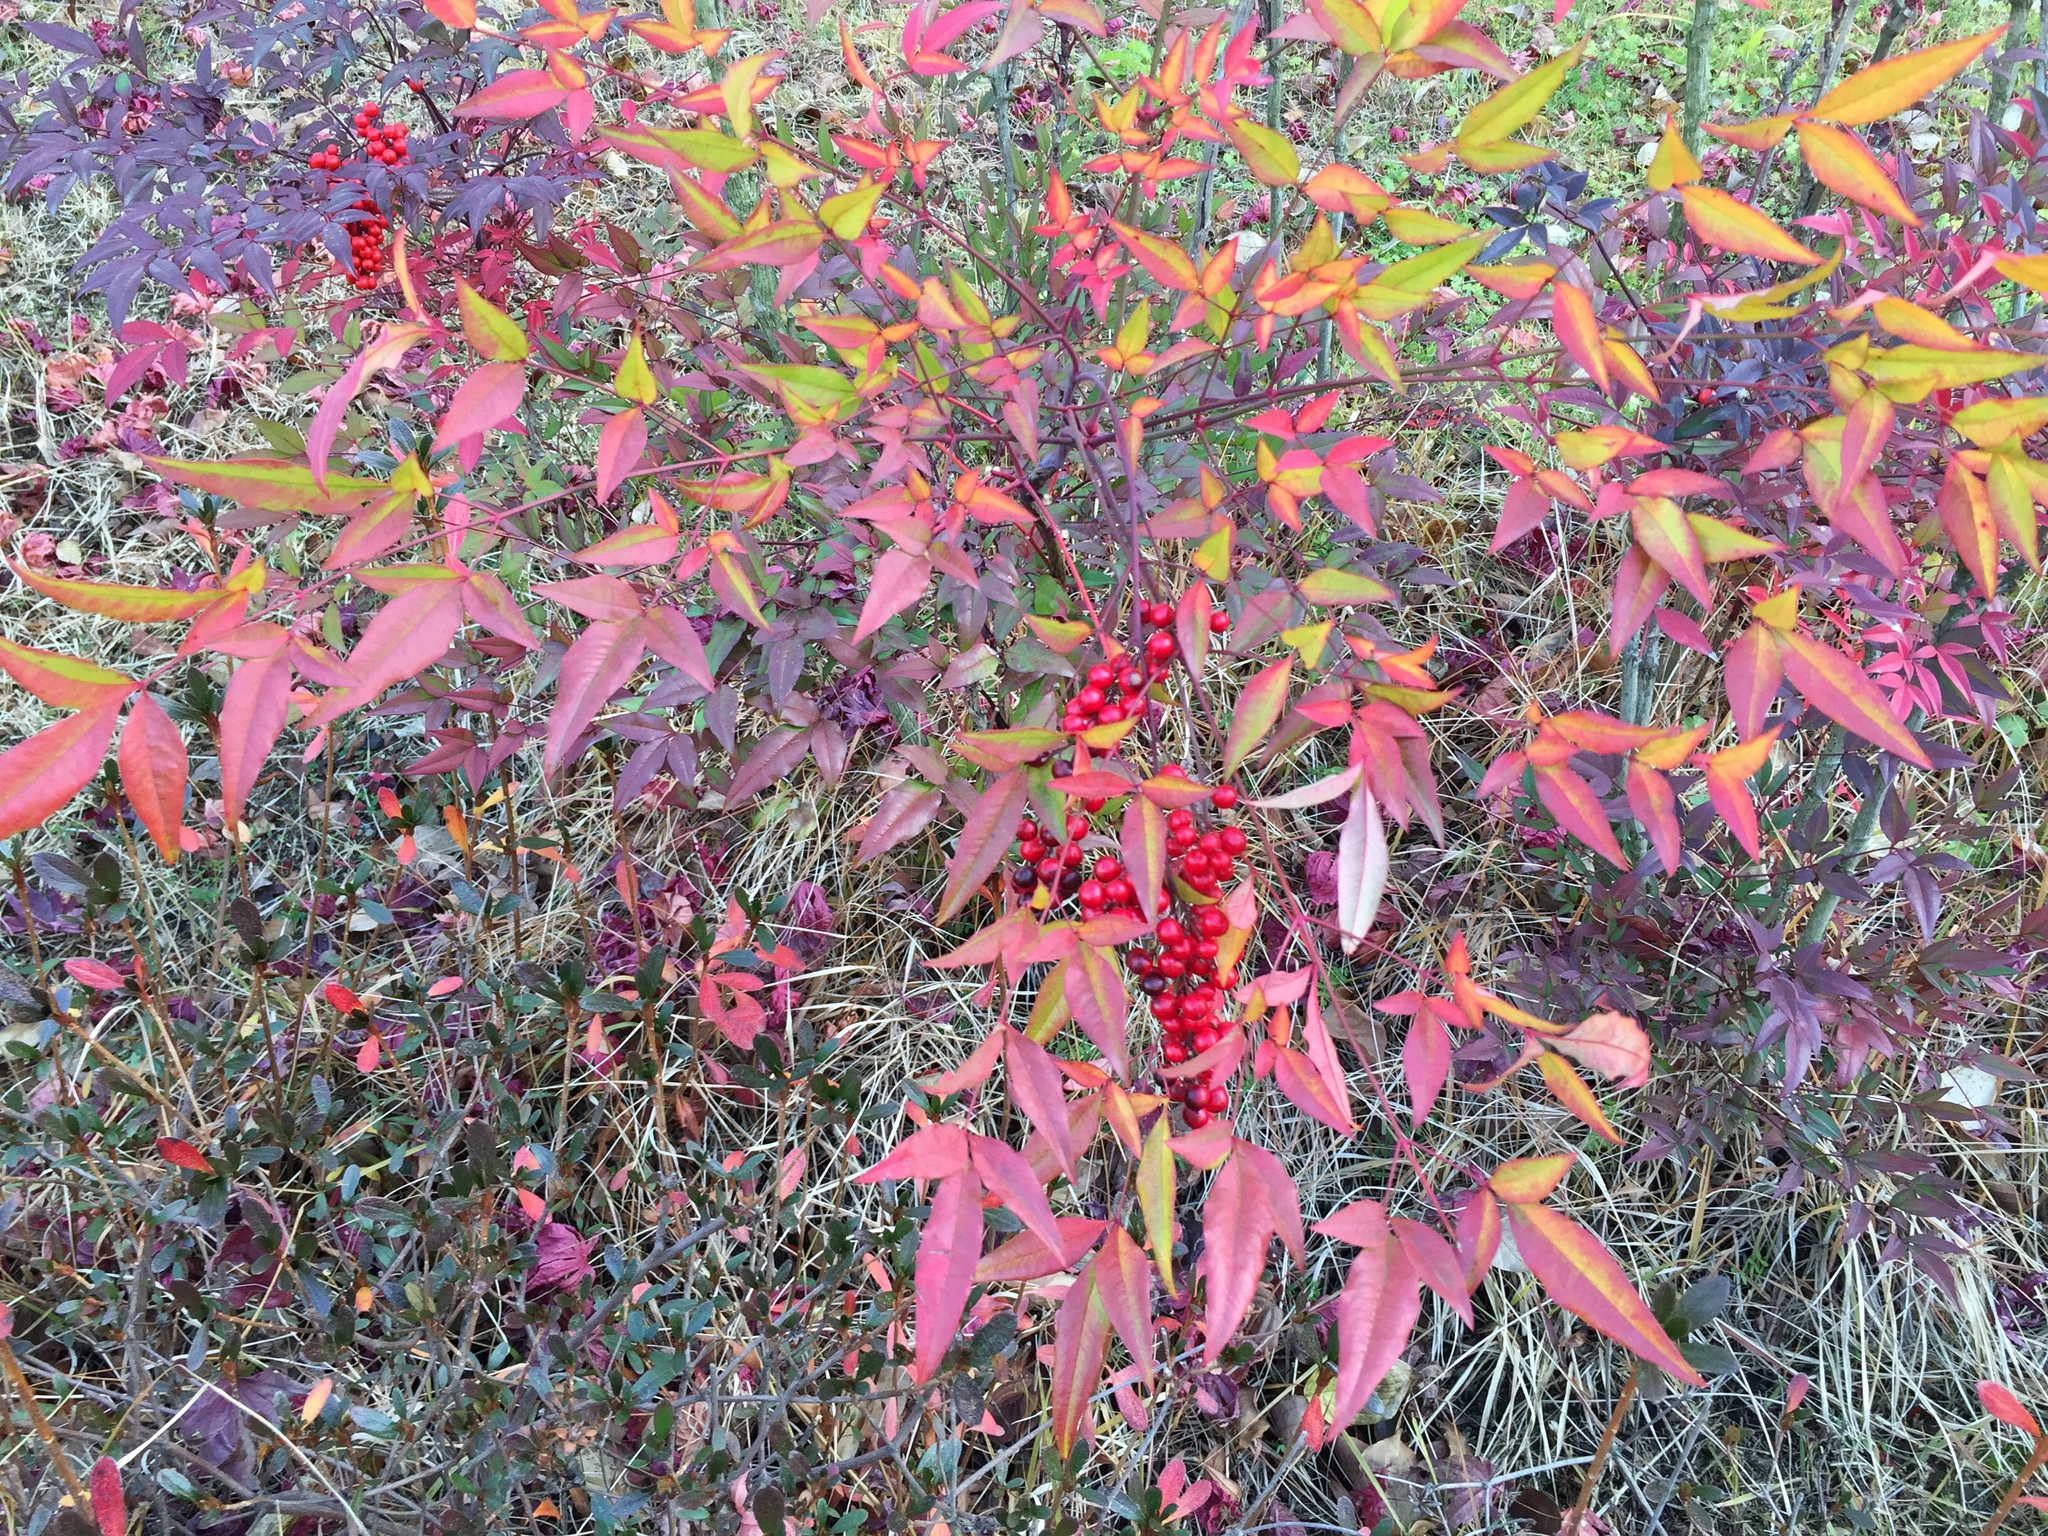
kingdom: Plantae
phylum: Tracheophyta
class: Magnoliopsida
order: Ranunculales
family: Berberidaceae
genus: Nandina
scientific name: Nandina domestica
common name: Sacred bamboo
